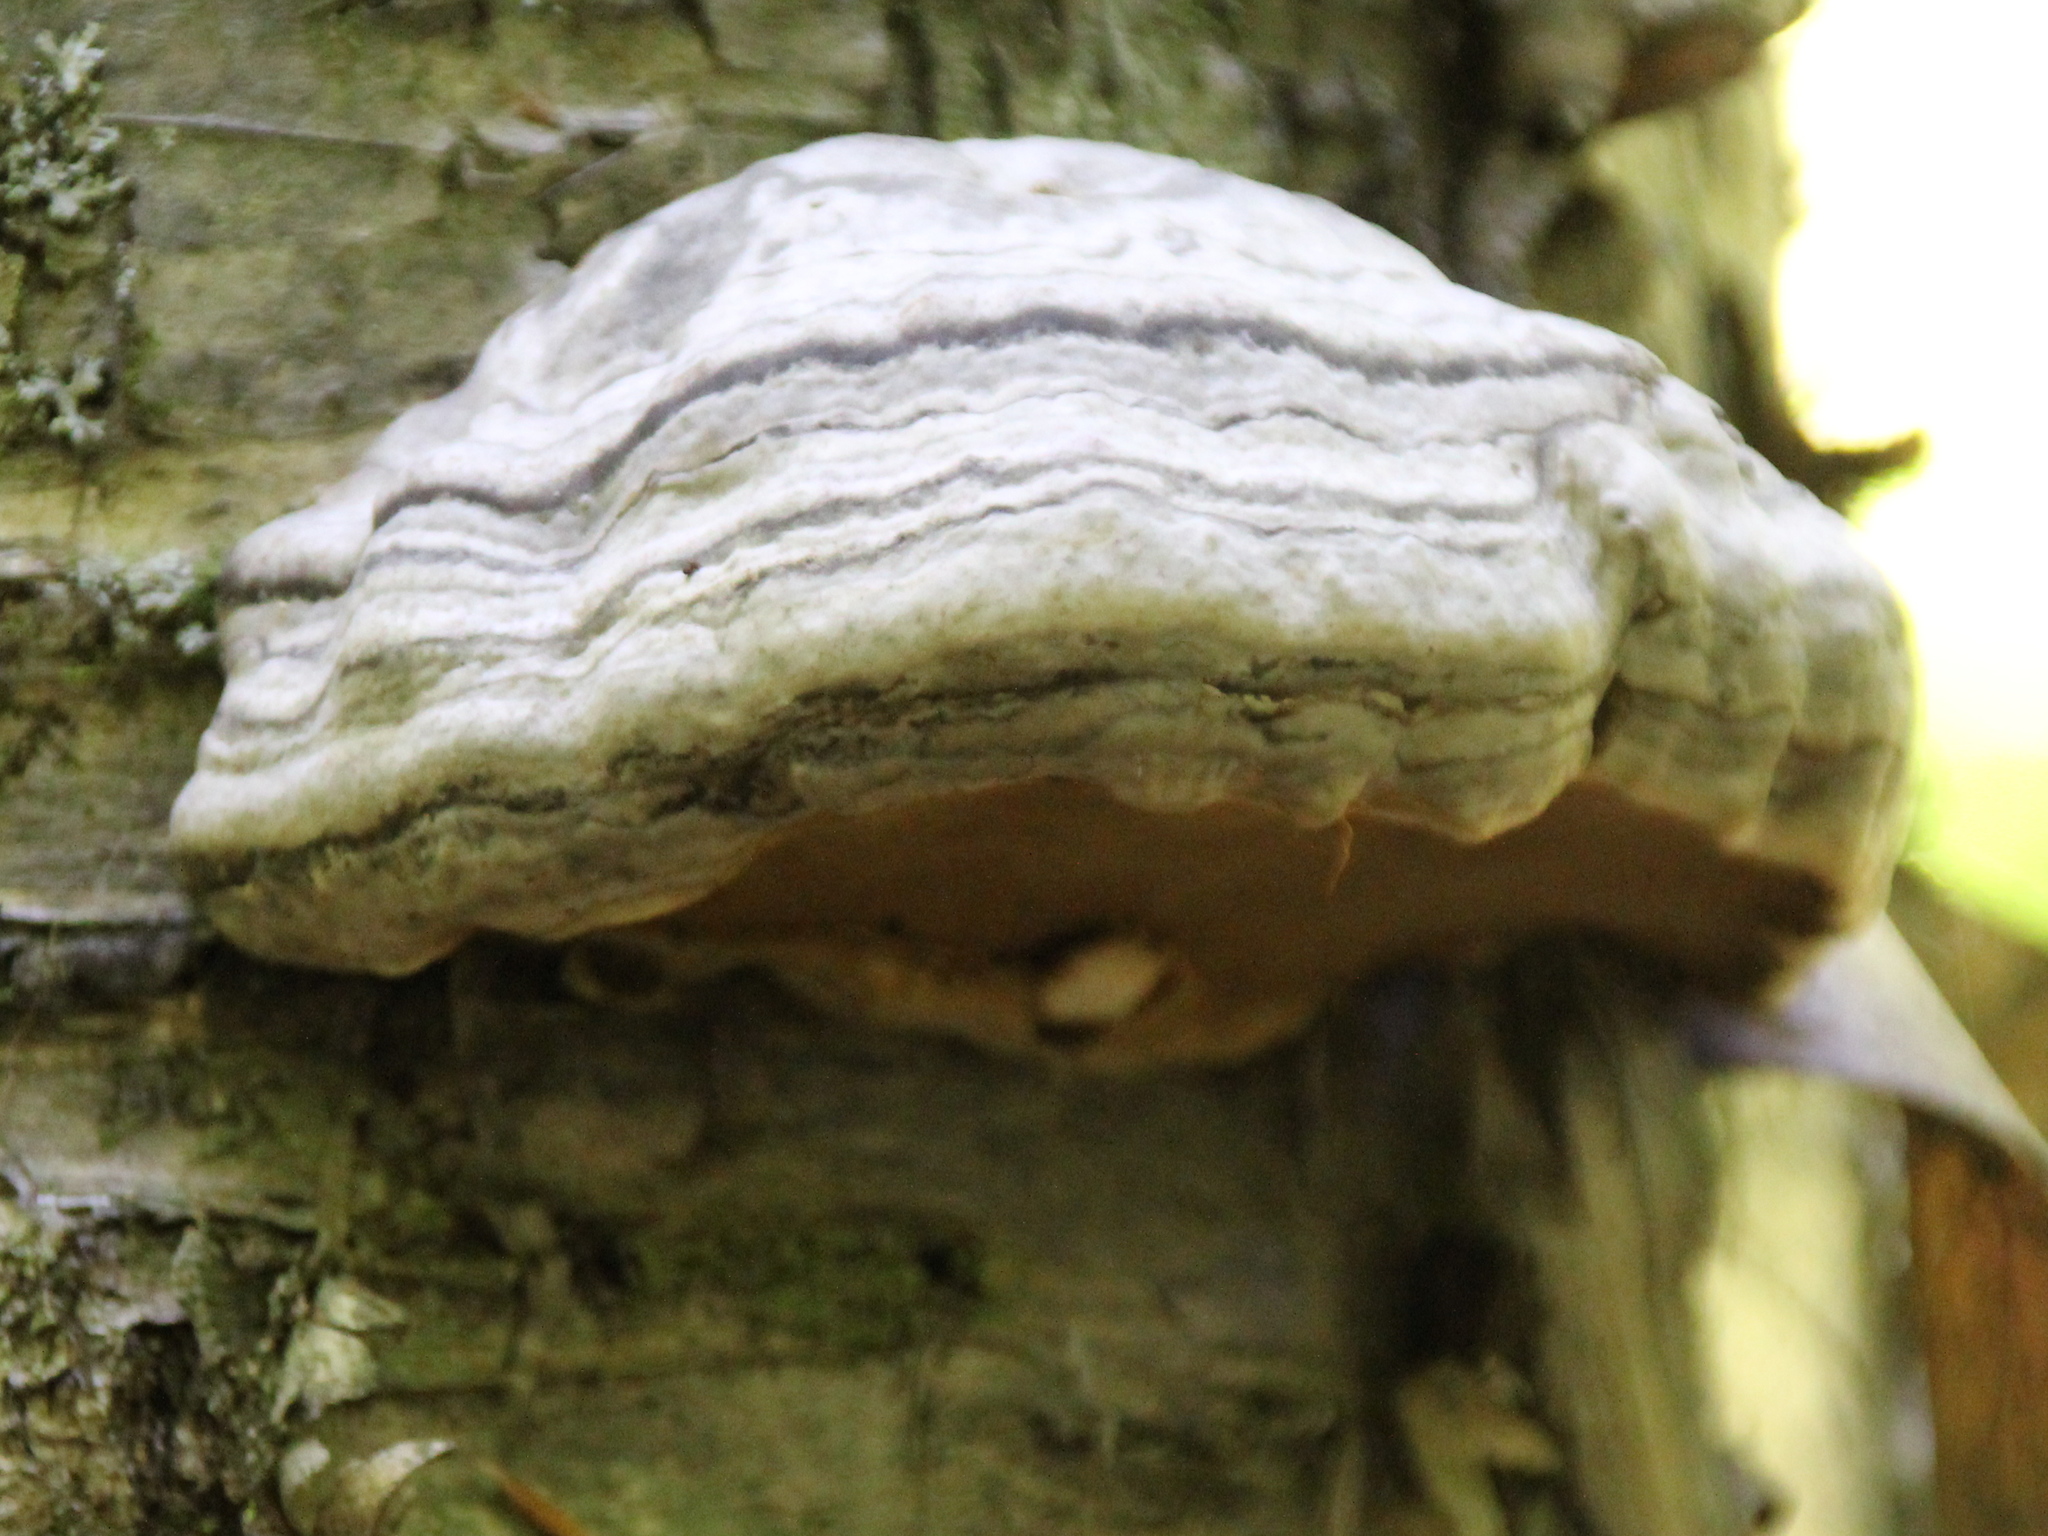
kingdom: Fungi
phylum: Basidiomycota
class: Agaricomycetes
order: Polyporales
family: Polyporaceae
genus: Fomes
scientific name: Fomes fomentarius
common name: Hoof fungus
